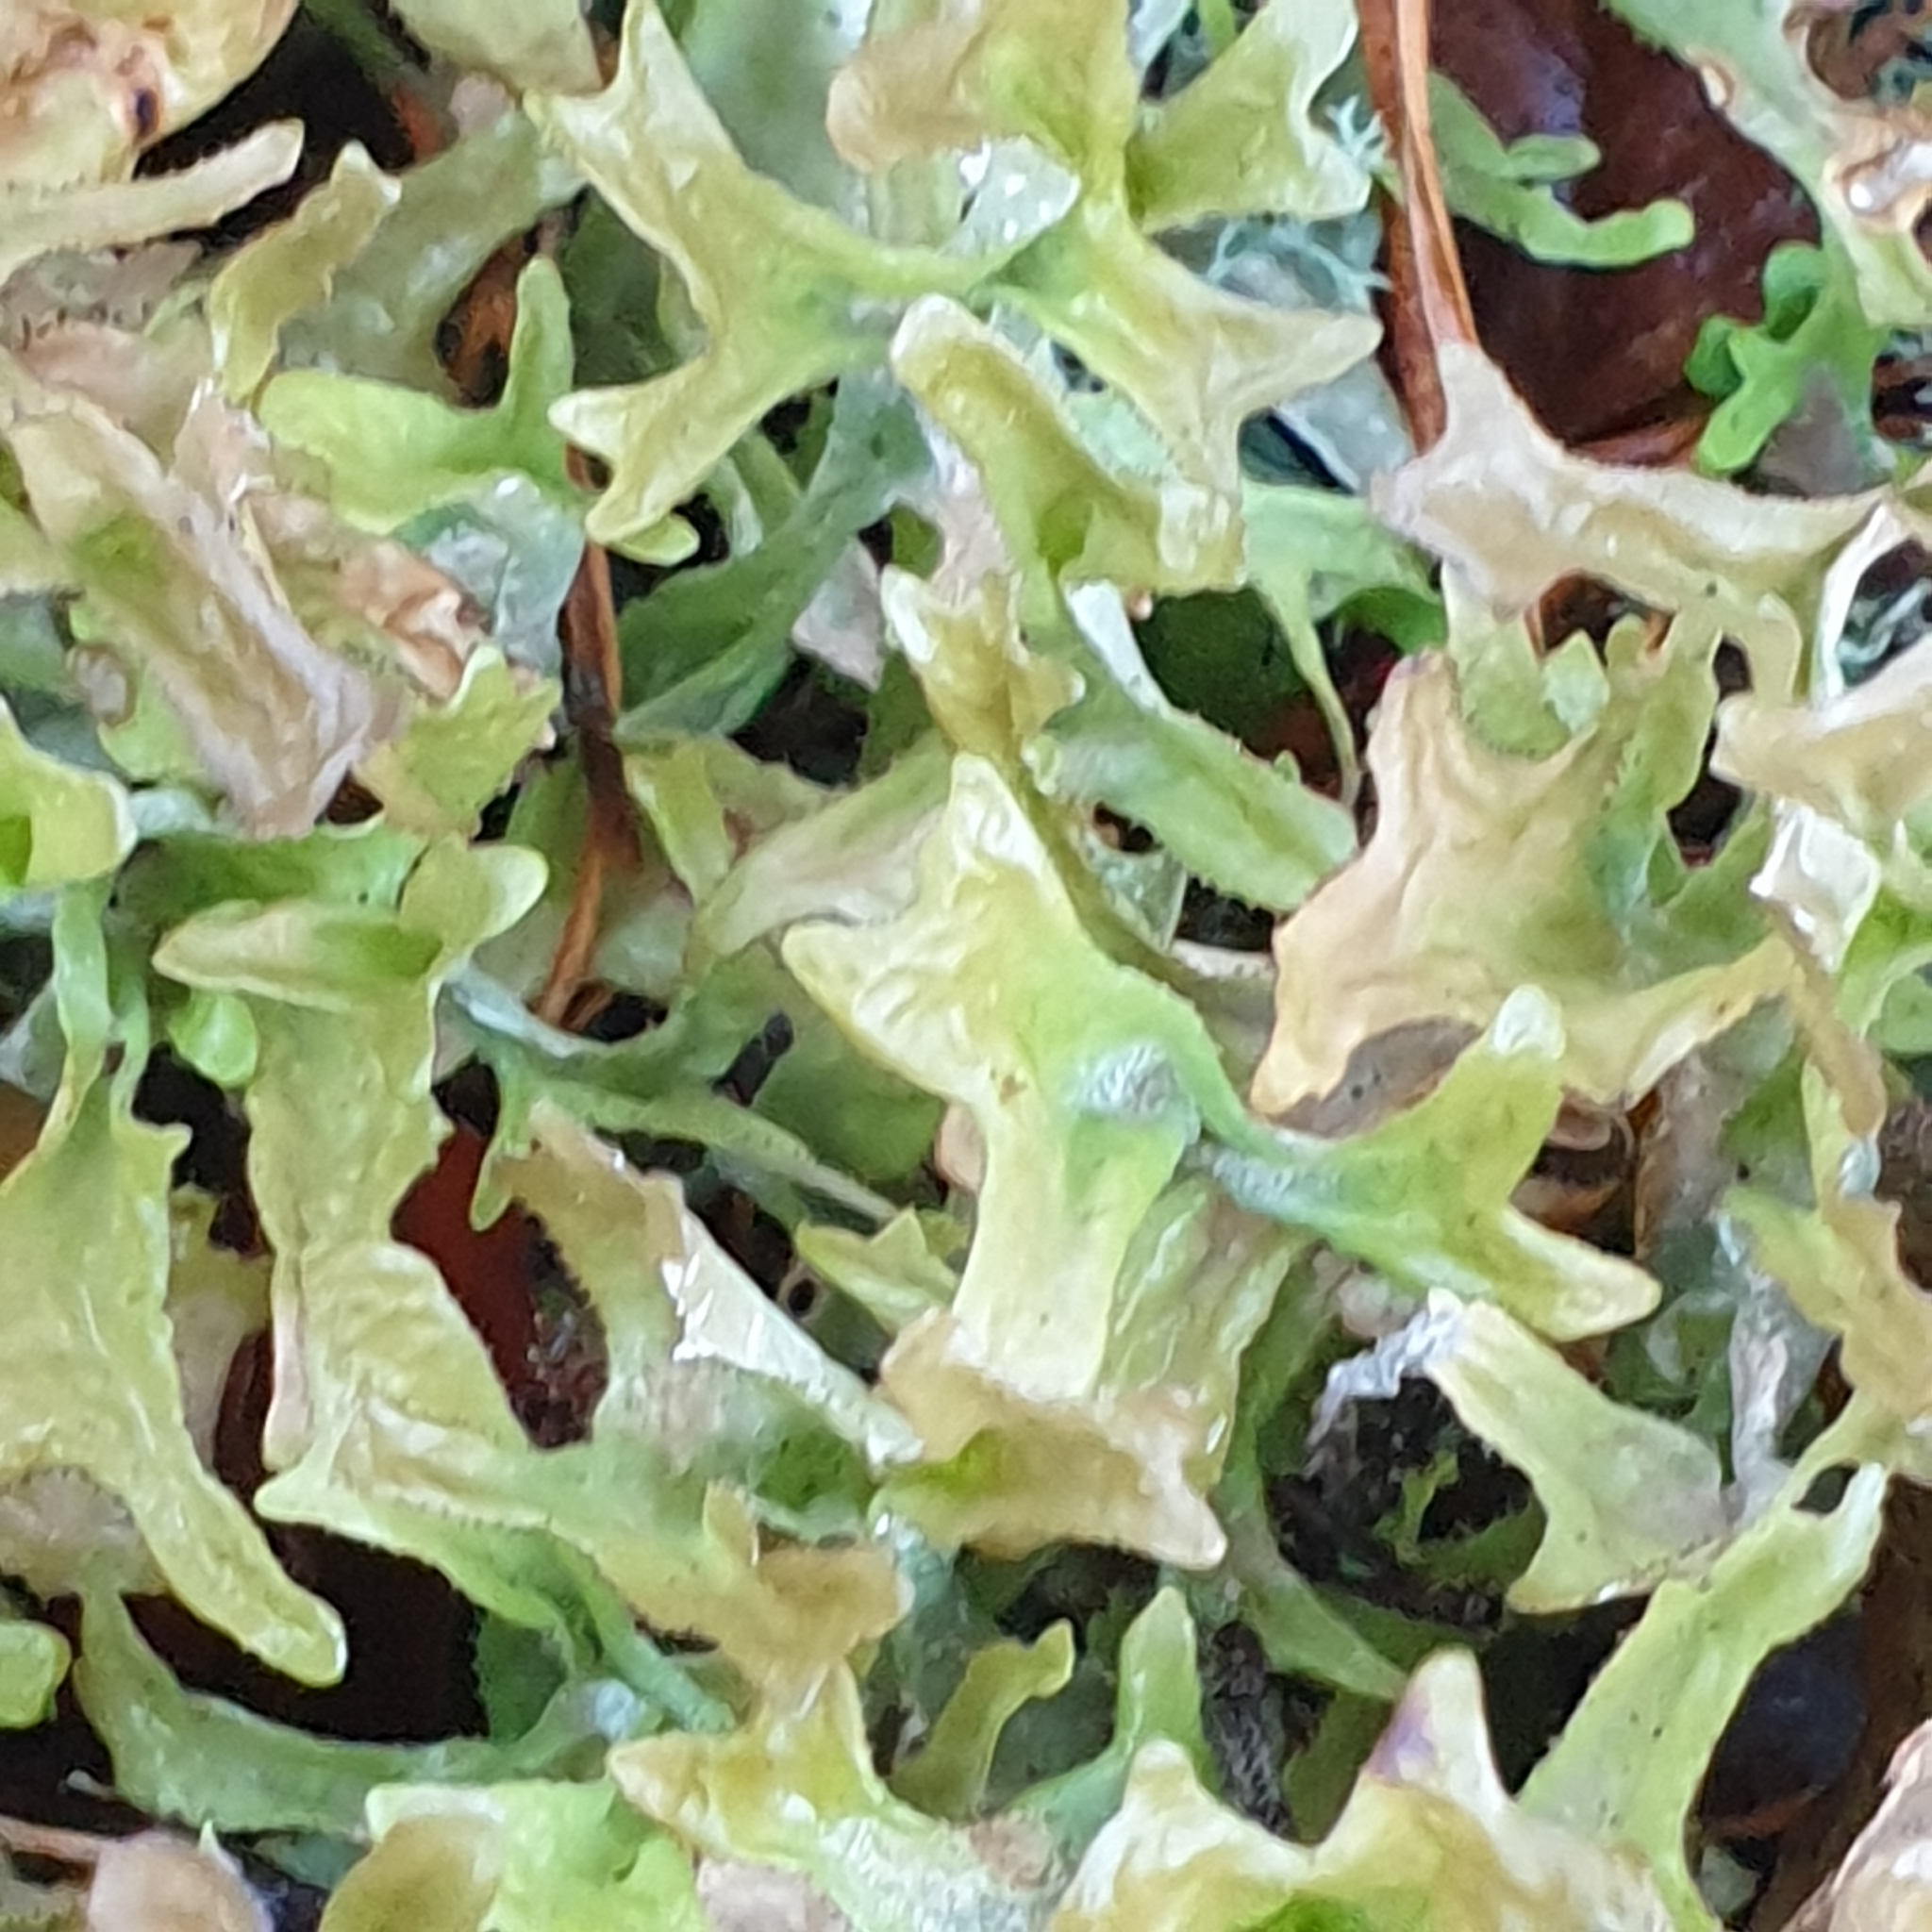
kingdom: Fungi
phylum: Ascomycota
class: Lecanoromycetes
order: Lecanorales
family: Parmeliaceae
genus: Cetraria
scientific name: Cetraria islandica
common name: Iceland lichen
